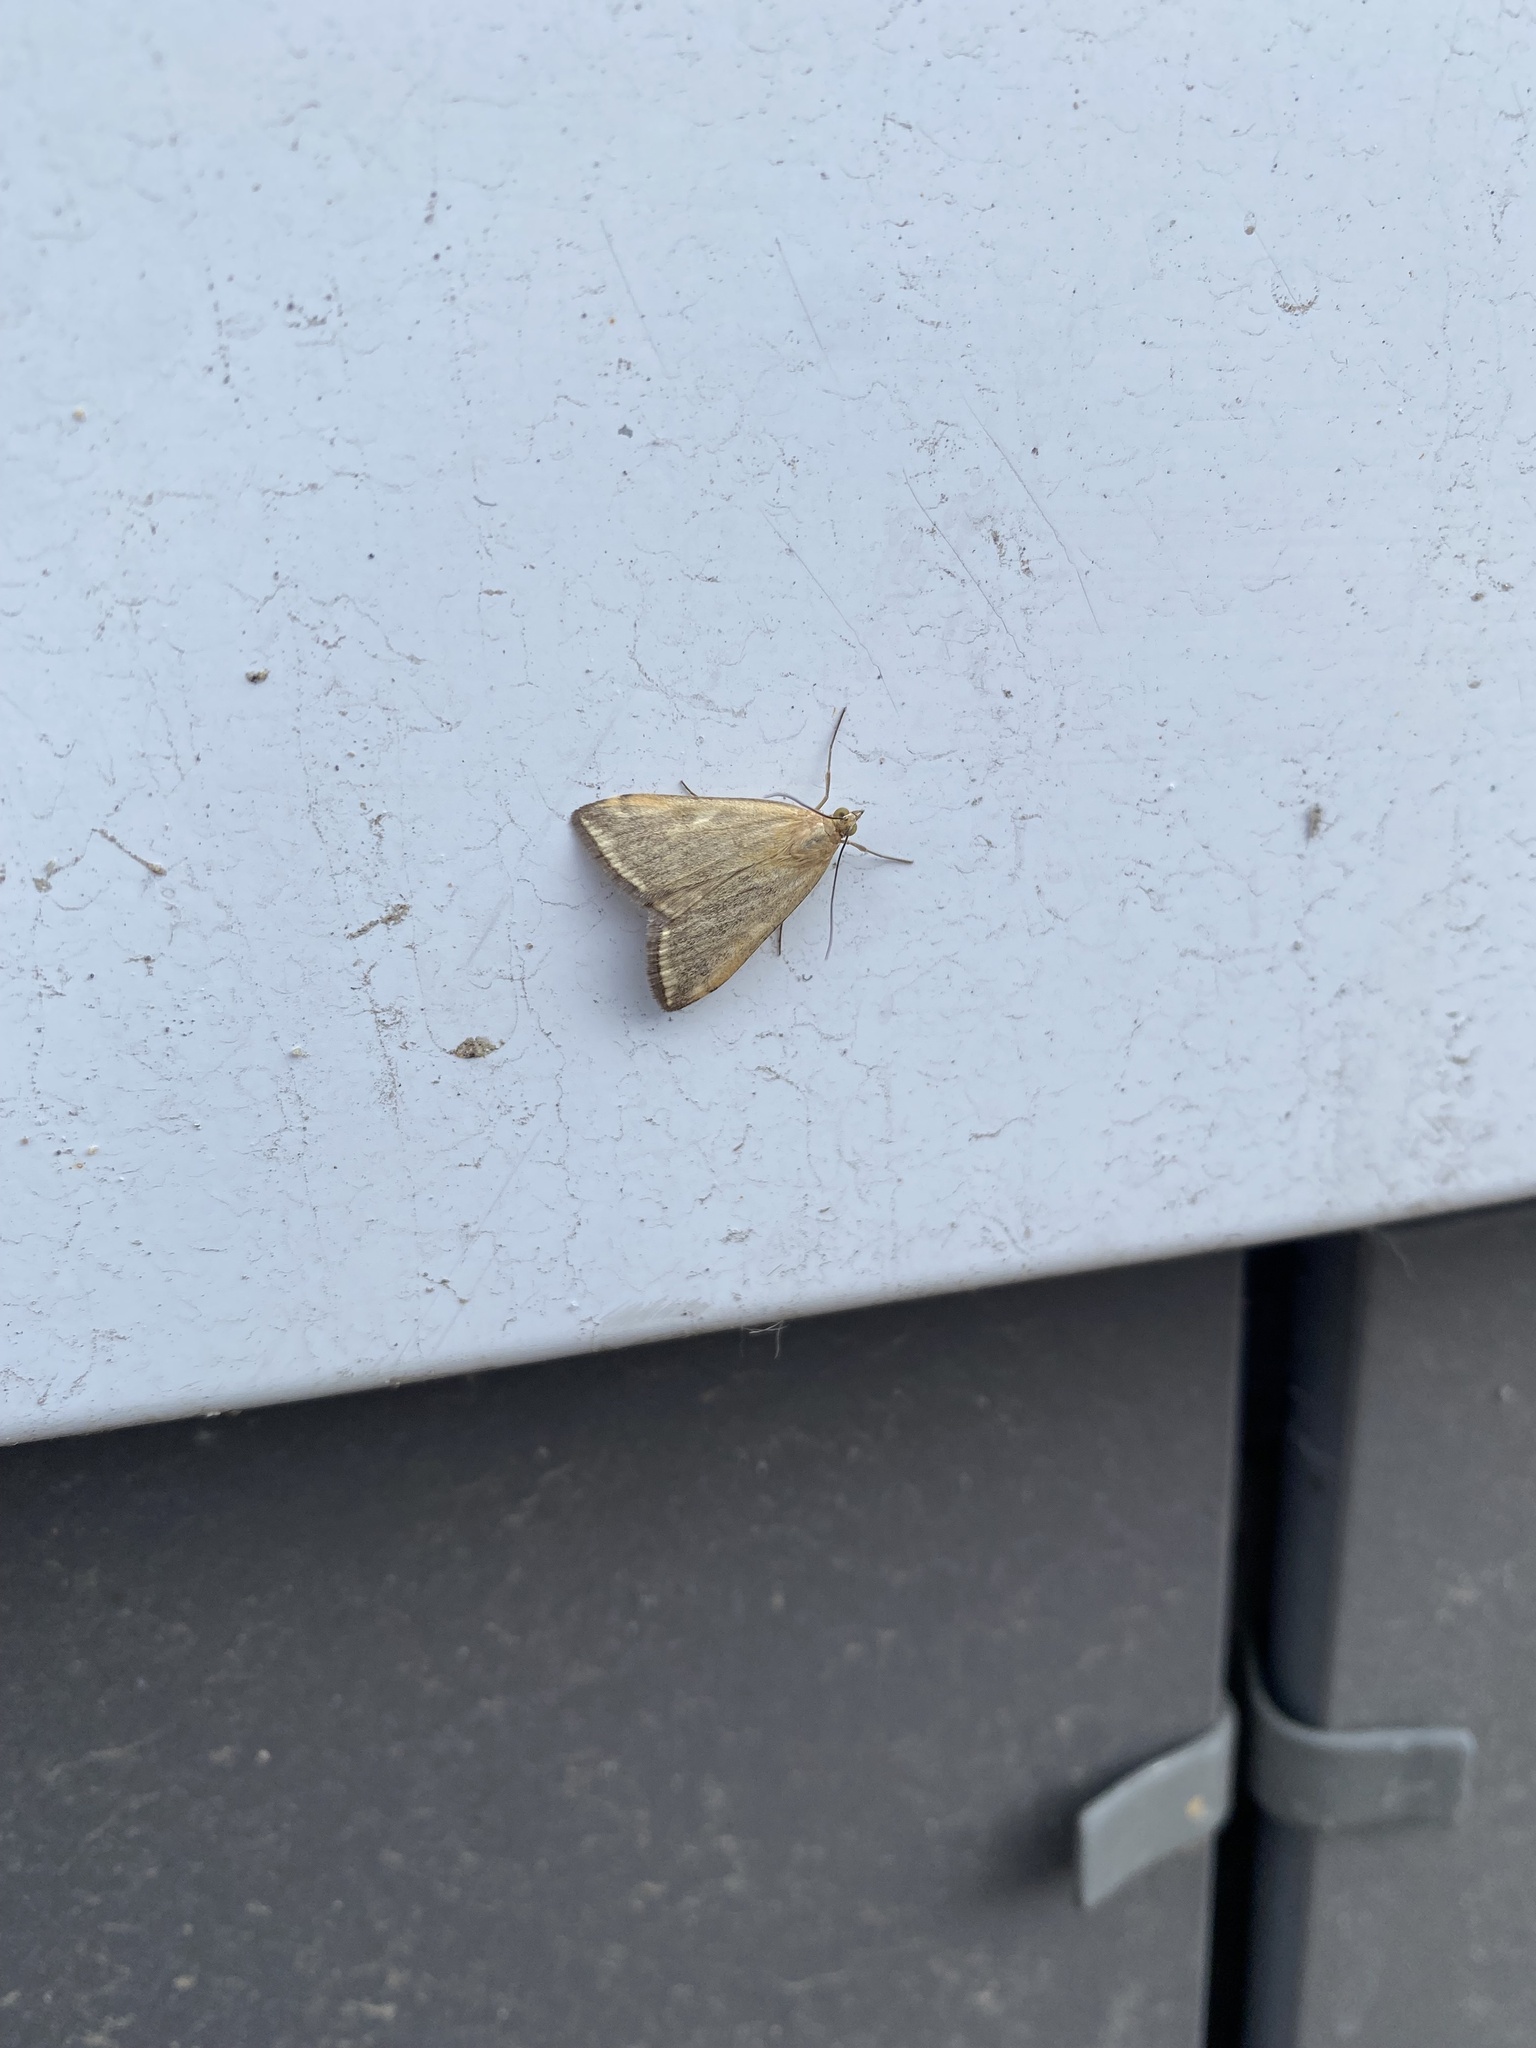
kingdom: Animalia
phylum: Arthropoda
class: Insecta
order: Lepidoptera
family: Crambidae
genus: Loxostege
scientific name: Loxostege sticticalis
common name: Crambid moth
